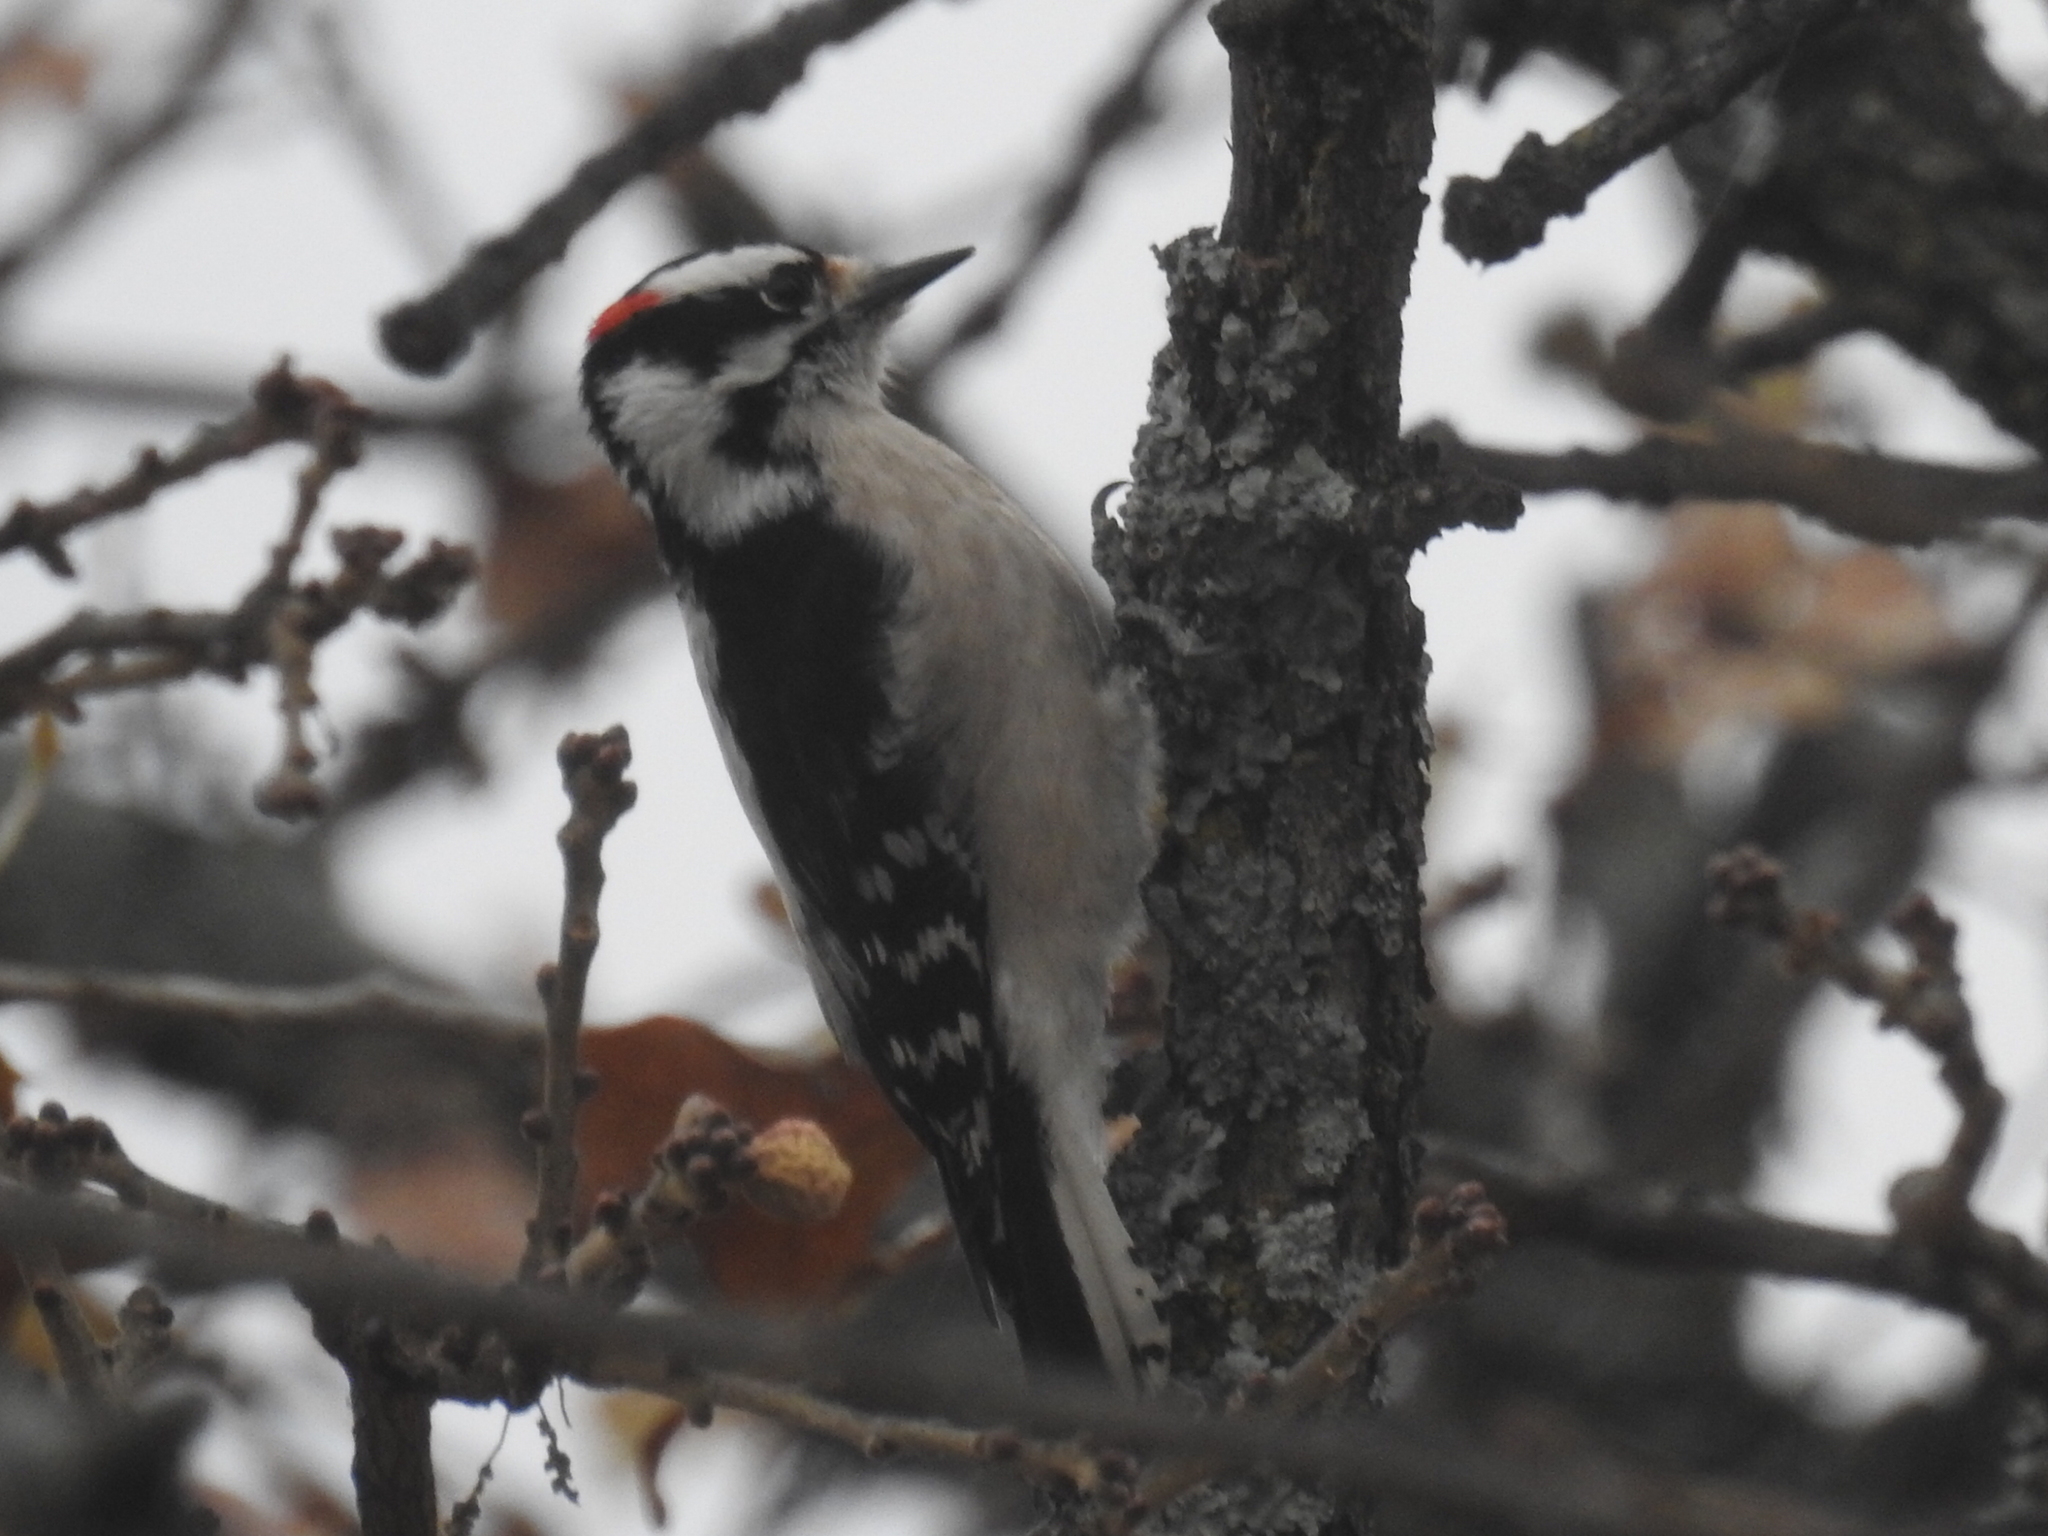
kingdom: Animalia
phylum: Chordata
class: Aves
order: Piciformes
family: Picidae
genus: Dryobates
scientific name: Dryobates pubescens
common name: Downy woodpecker
